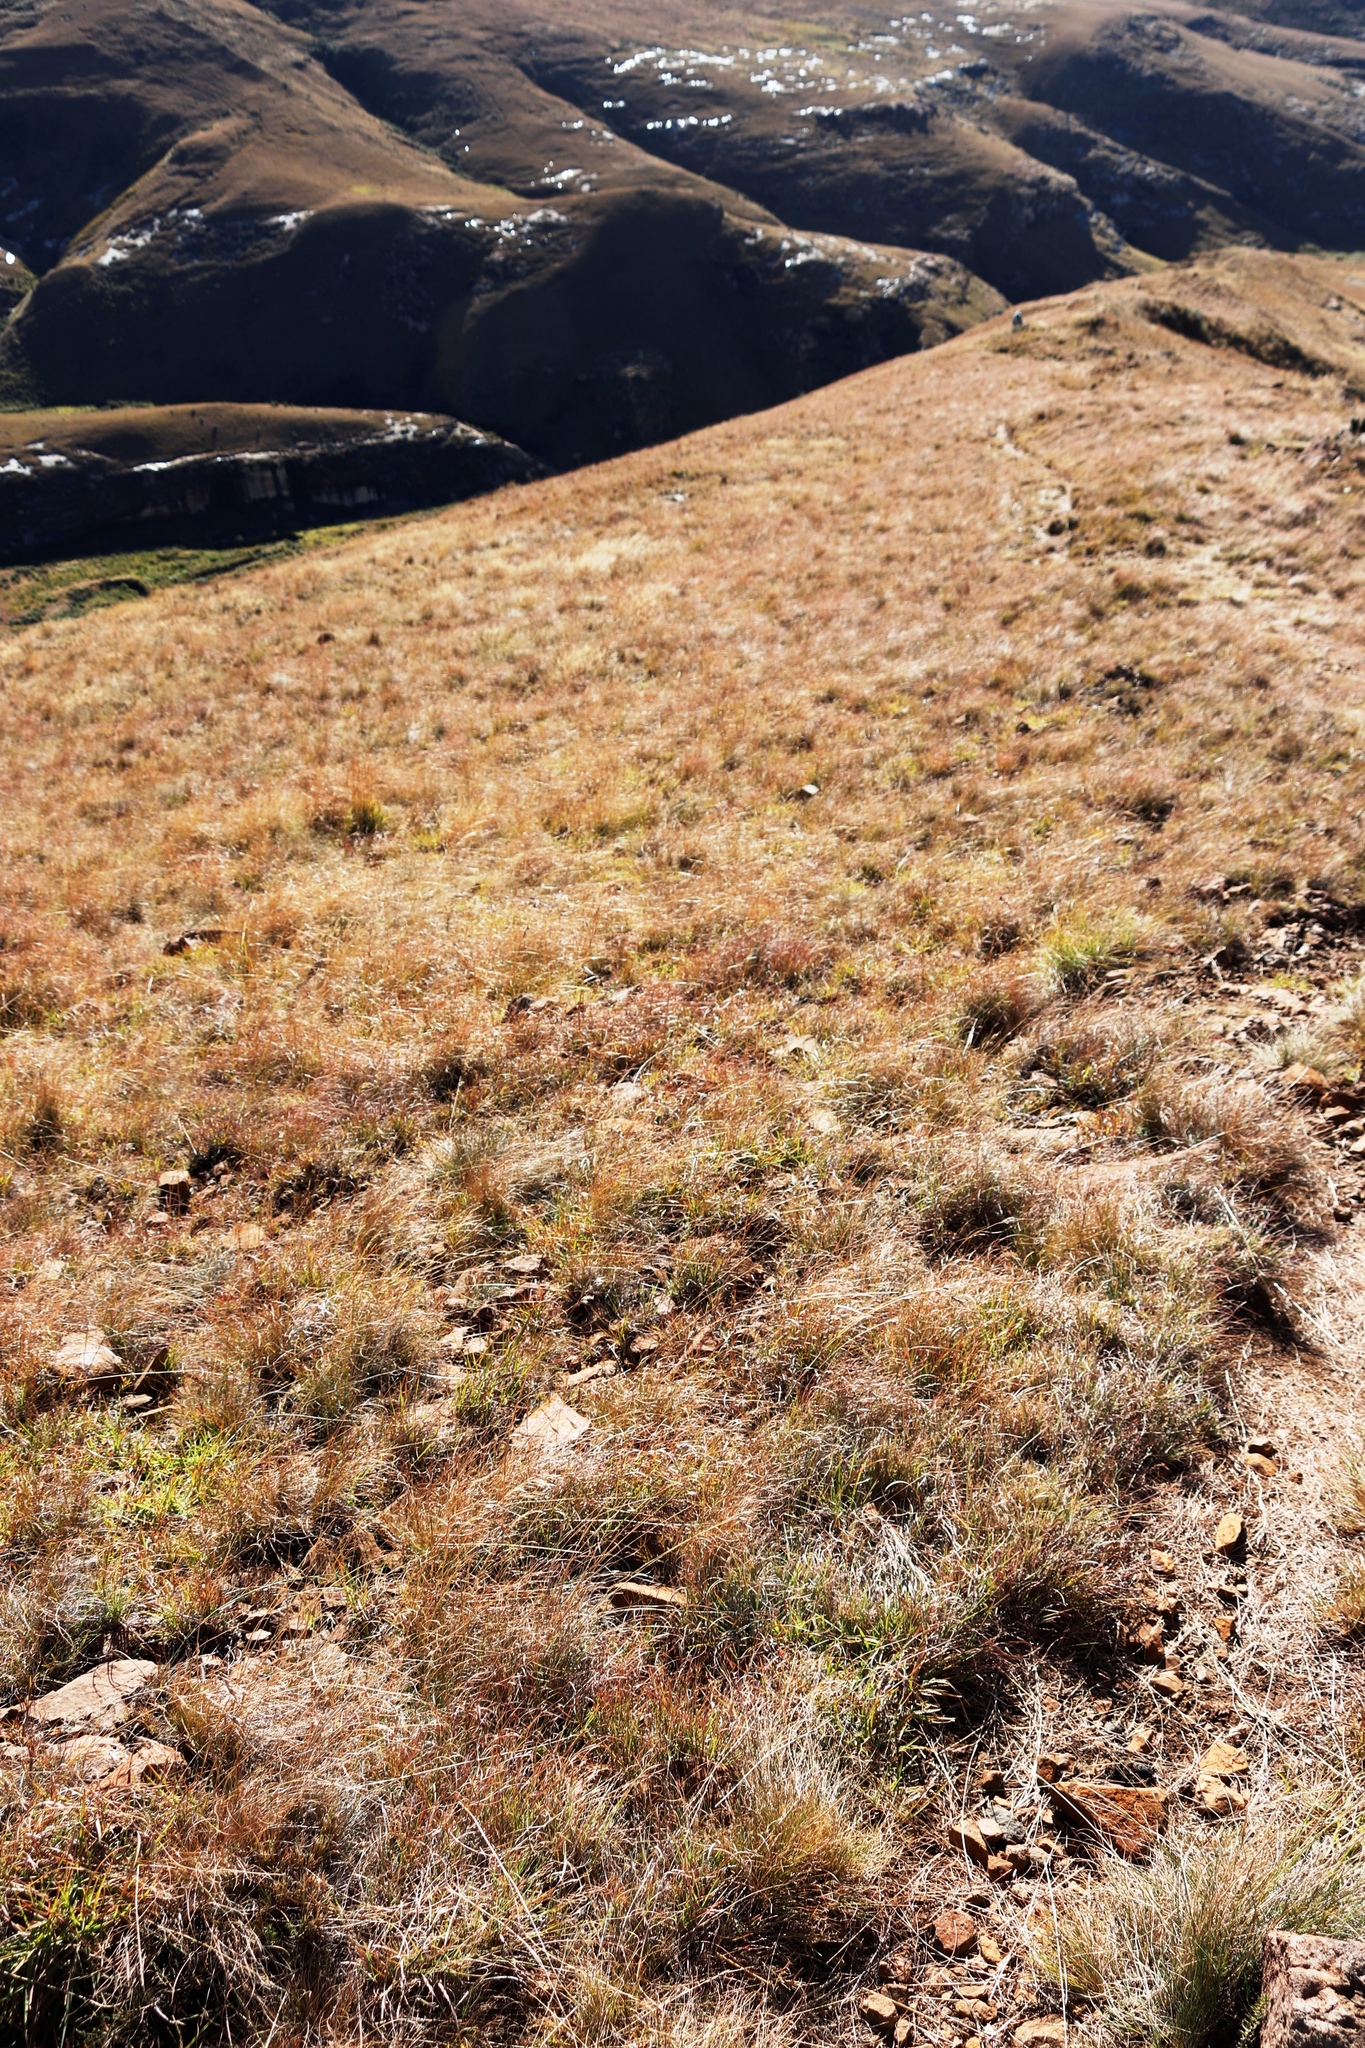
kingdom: Plantae
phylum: Tracheophyta
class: Liliopsida
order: Poales
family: Poaceae
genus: Themeda
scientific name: Themeda triandra
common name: Kangaroo grass
